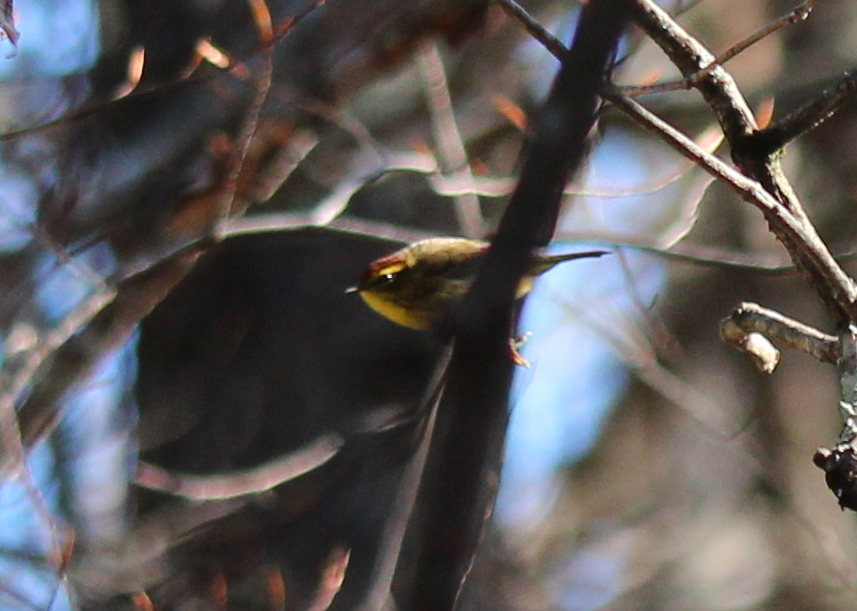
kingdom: Animalia
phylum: Chordata
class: Aves
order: Passeriformes
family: Parulidae
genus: Setophaga
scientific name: Setophaga palmarum
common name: Palm warbler
